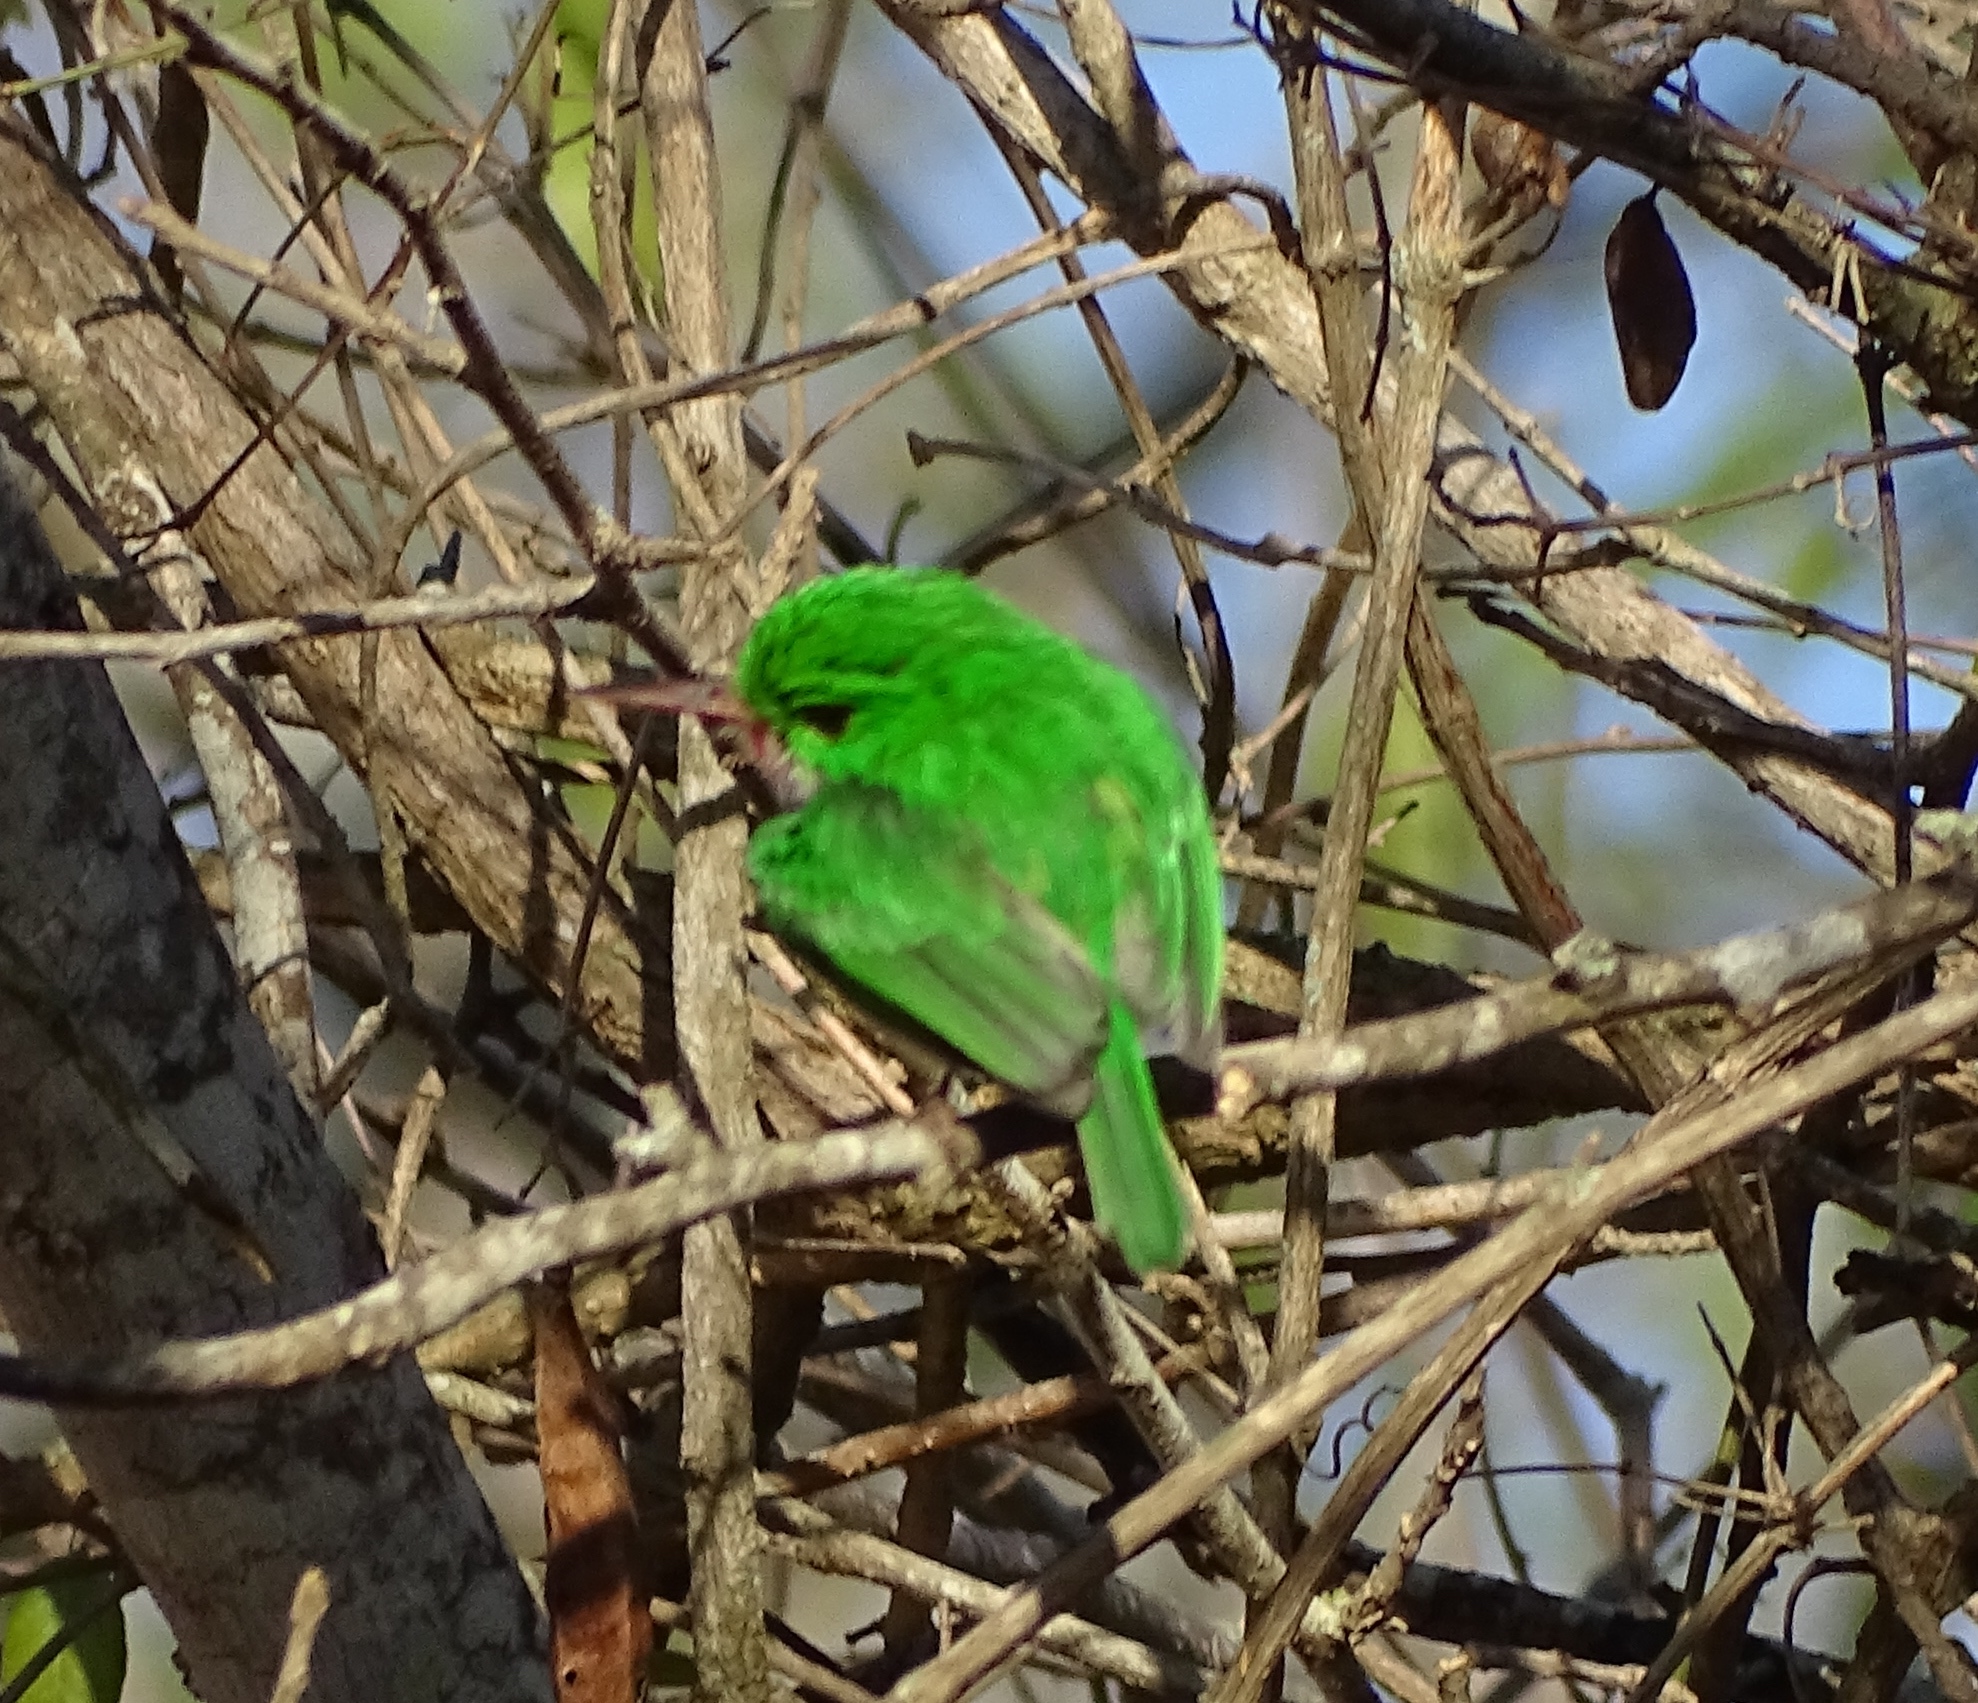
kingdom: Animalia
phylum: Chordata
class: Aves
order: Coraciiformes
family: Todidae
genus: Todus
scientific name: Todus subulatus
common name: Broad-billed tody
